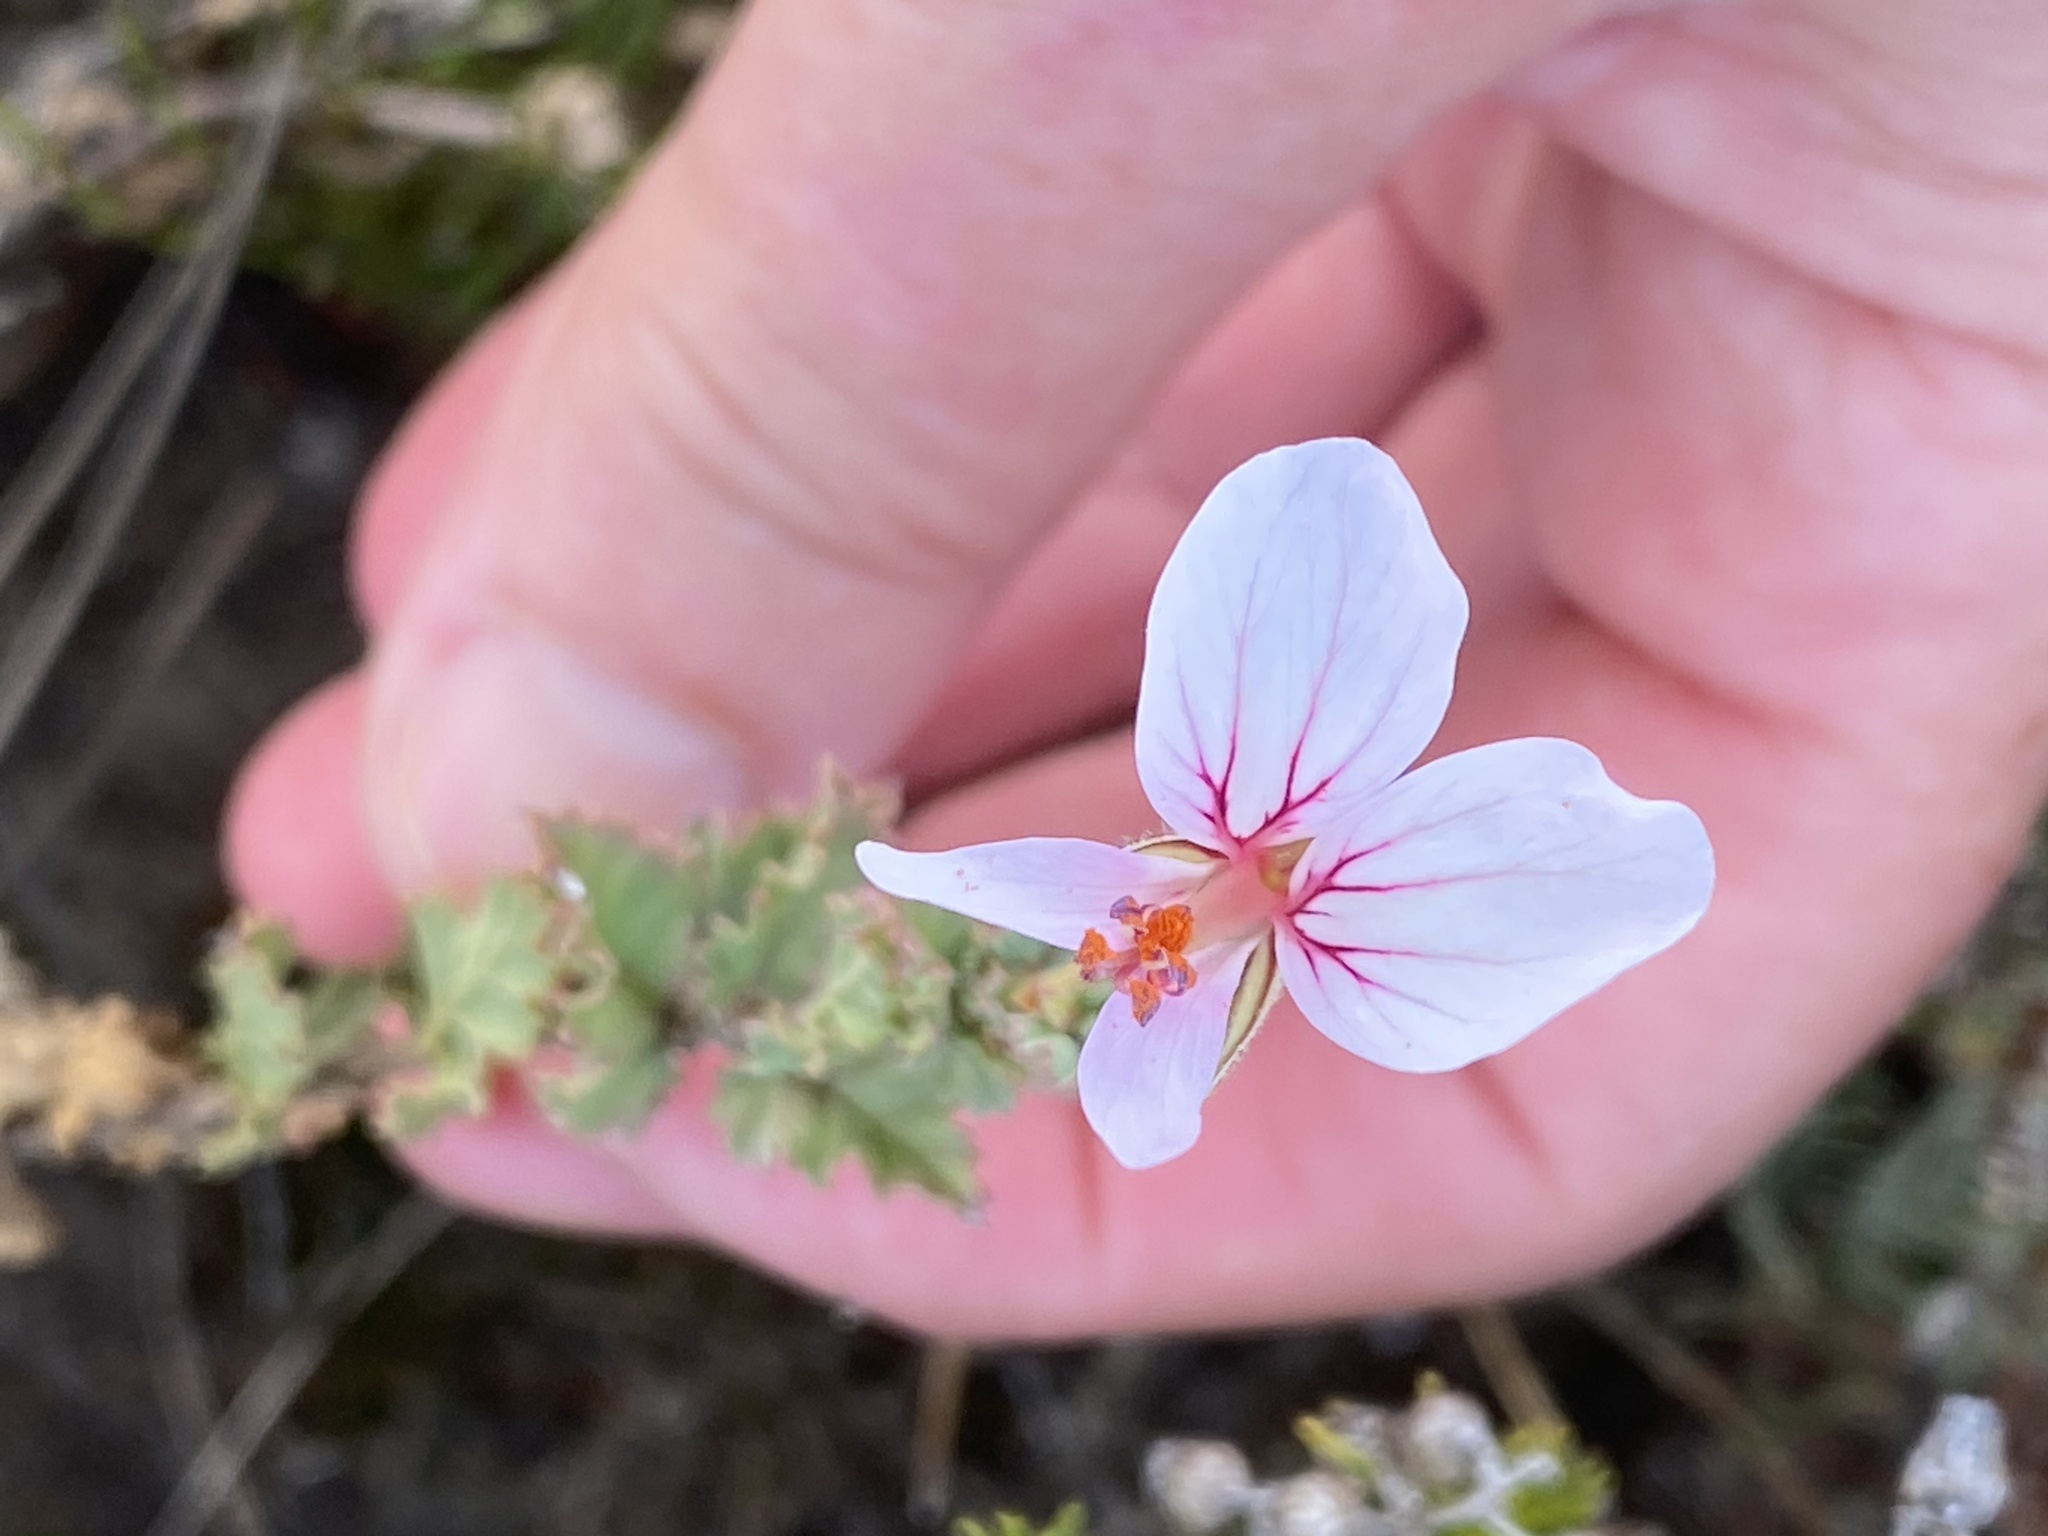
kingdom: Plantae
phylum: Tracheophyta
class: Magnoliopsida
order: Geraniales
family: Geraniaceae
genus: Pelargonium
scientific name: Pelargonium caucalifolium
